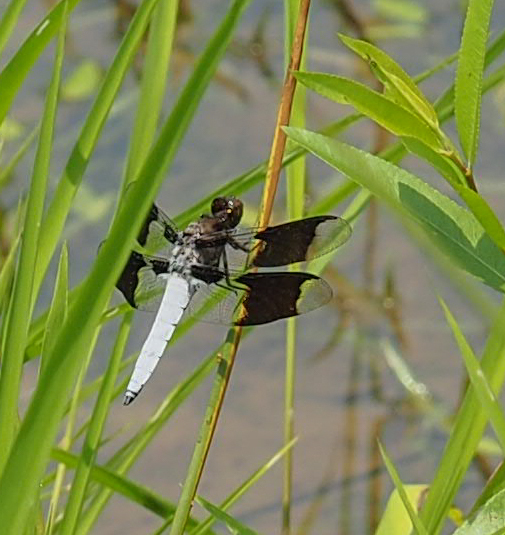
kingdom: Animalia
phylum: Arthropoda
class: Insecta
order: Odonata
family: Libellulidae
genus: Plathemis
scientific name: Plathemis lydia
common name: Common whitetail
